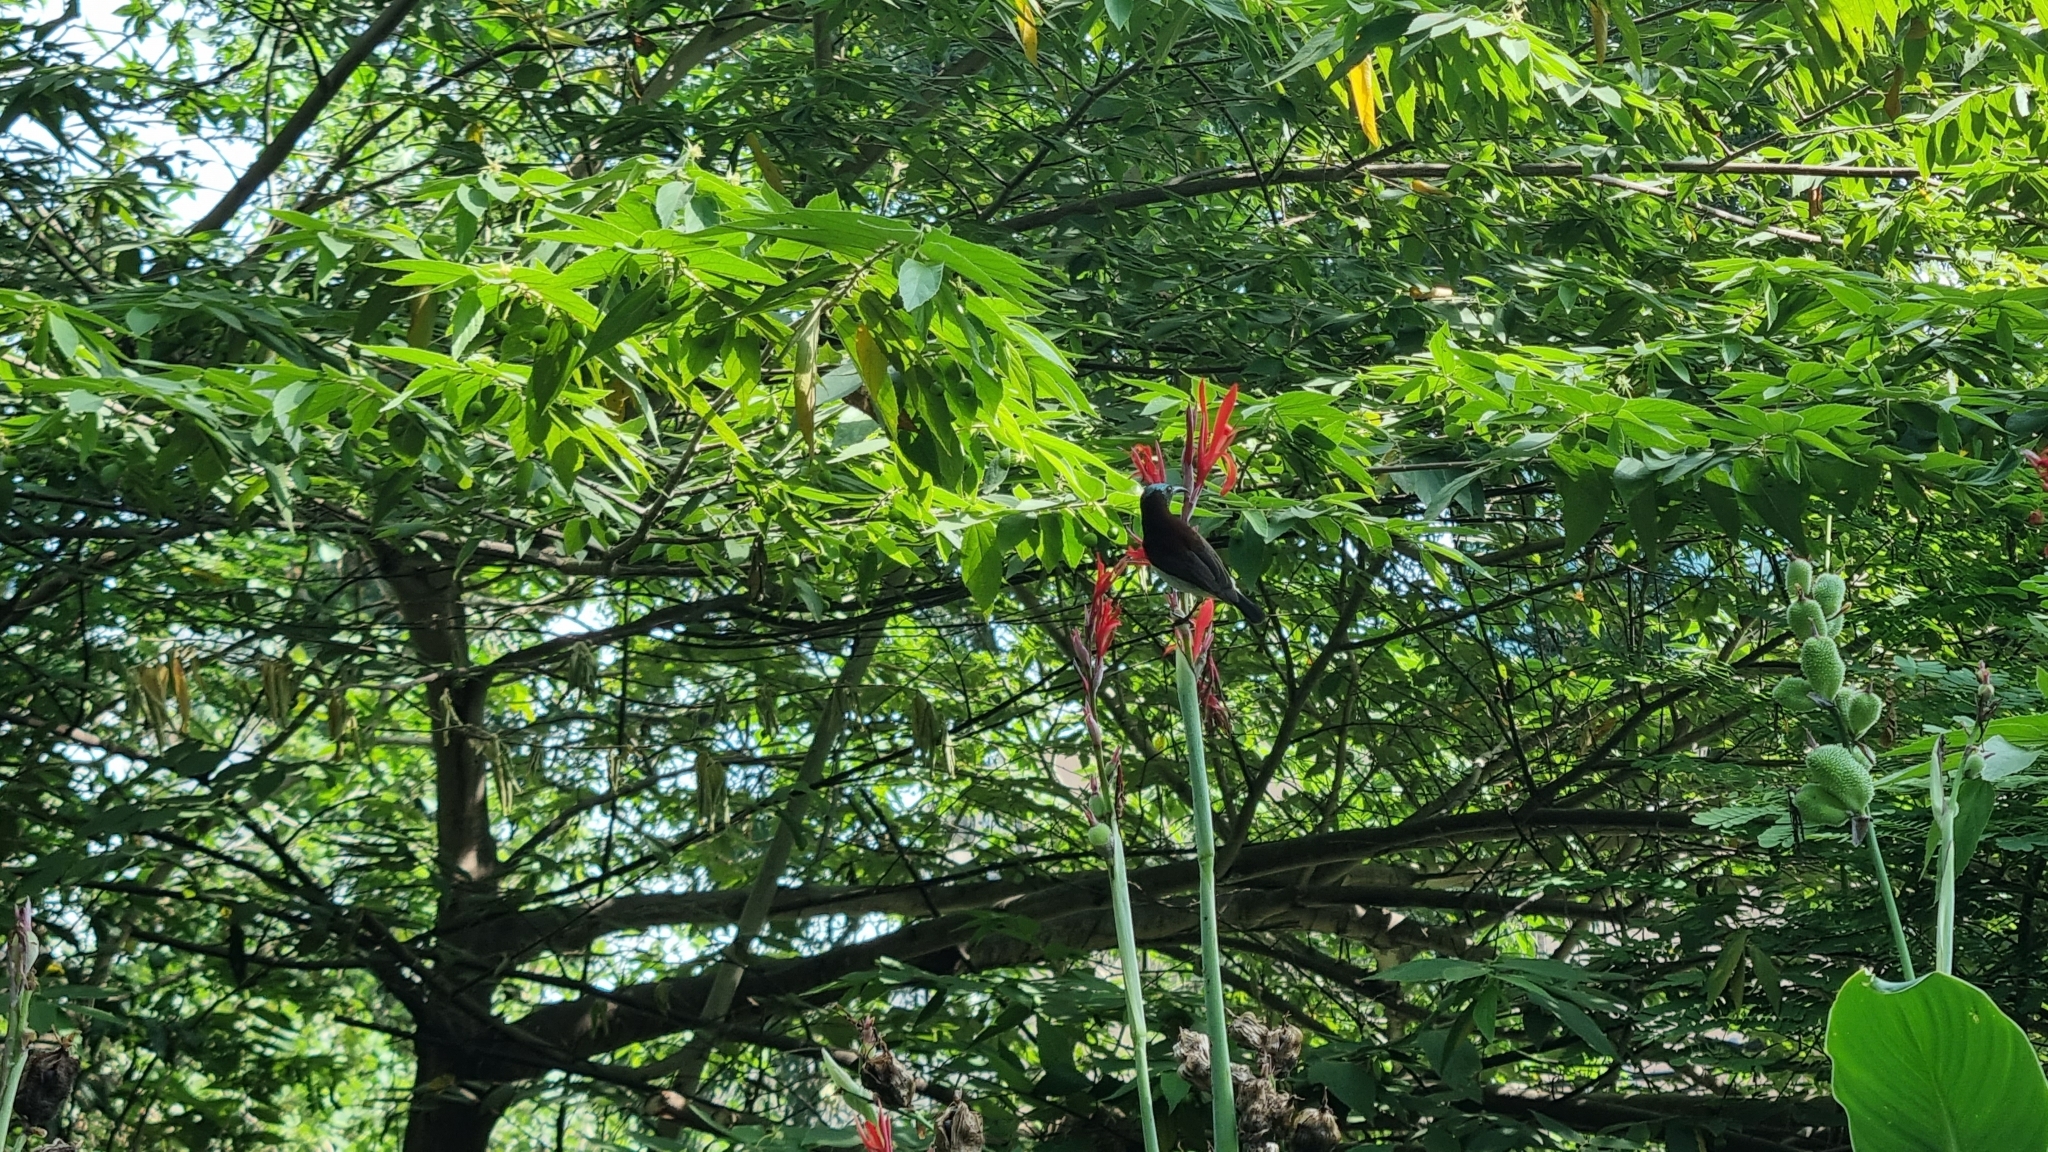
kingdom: Animalia
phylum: Chordata
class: Aves
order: Passeriformes
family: Nectariniidae
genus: Leptocoma
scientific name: Leptocoma zeylonica
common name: Purple-rumped sunbird
